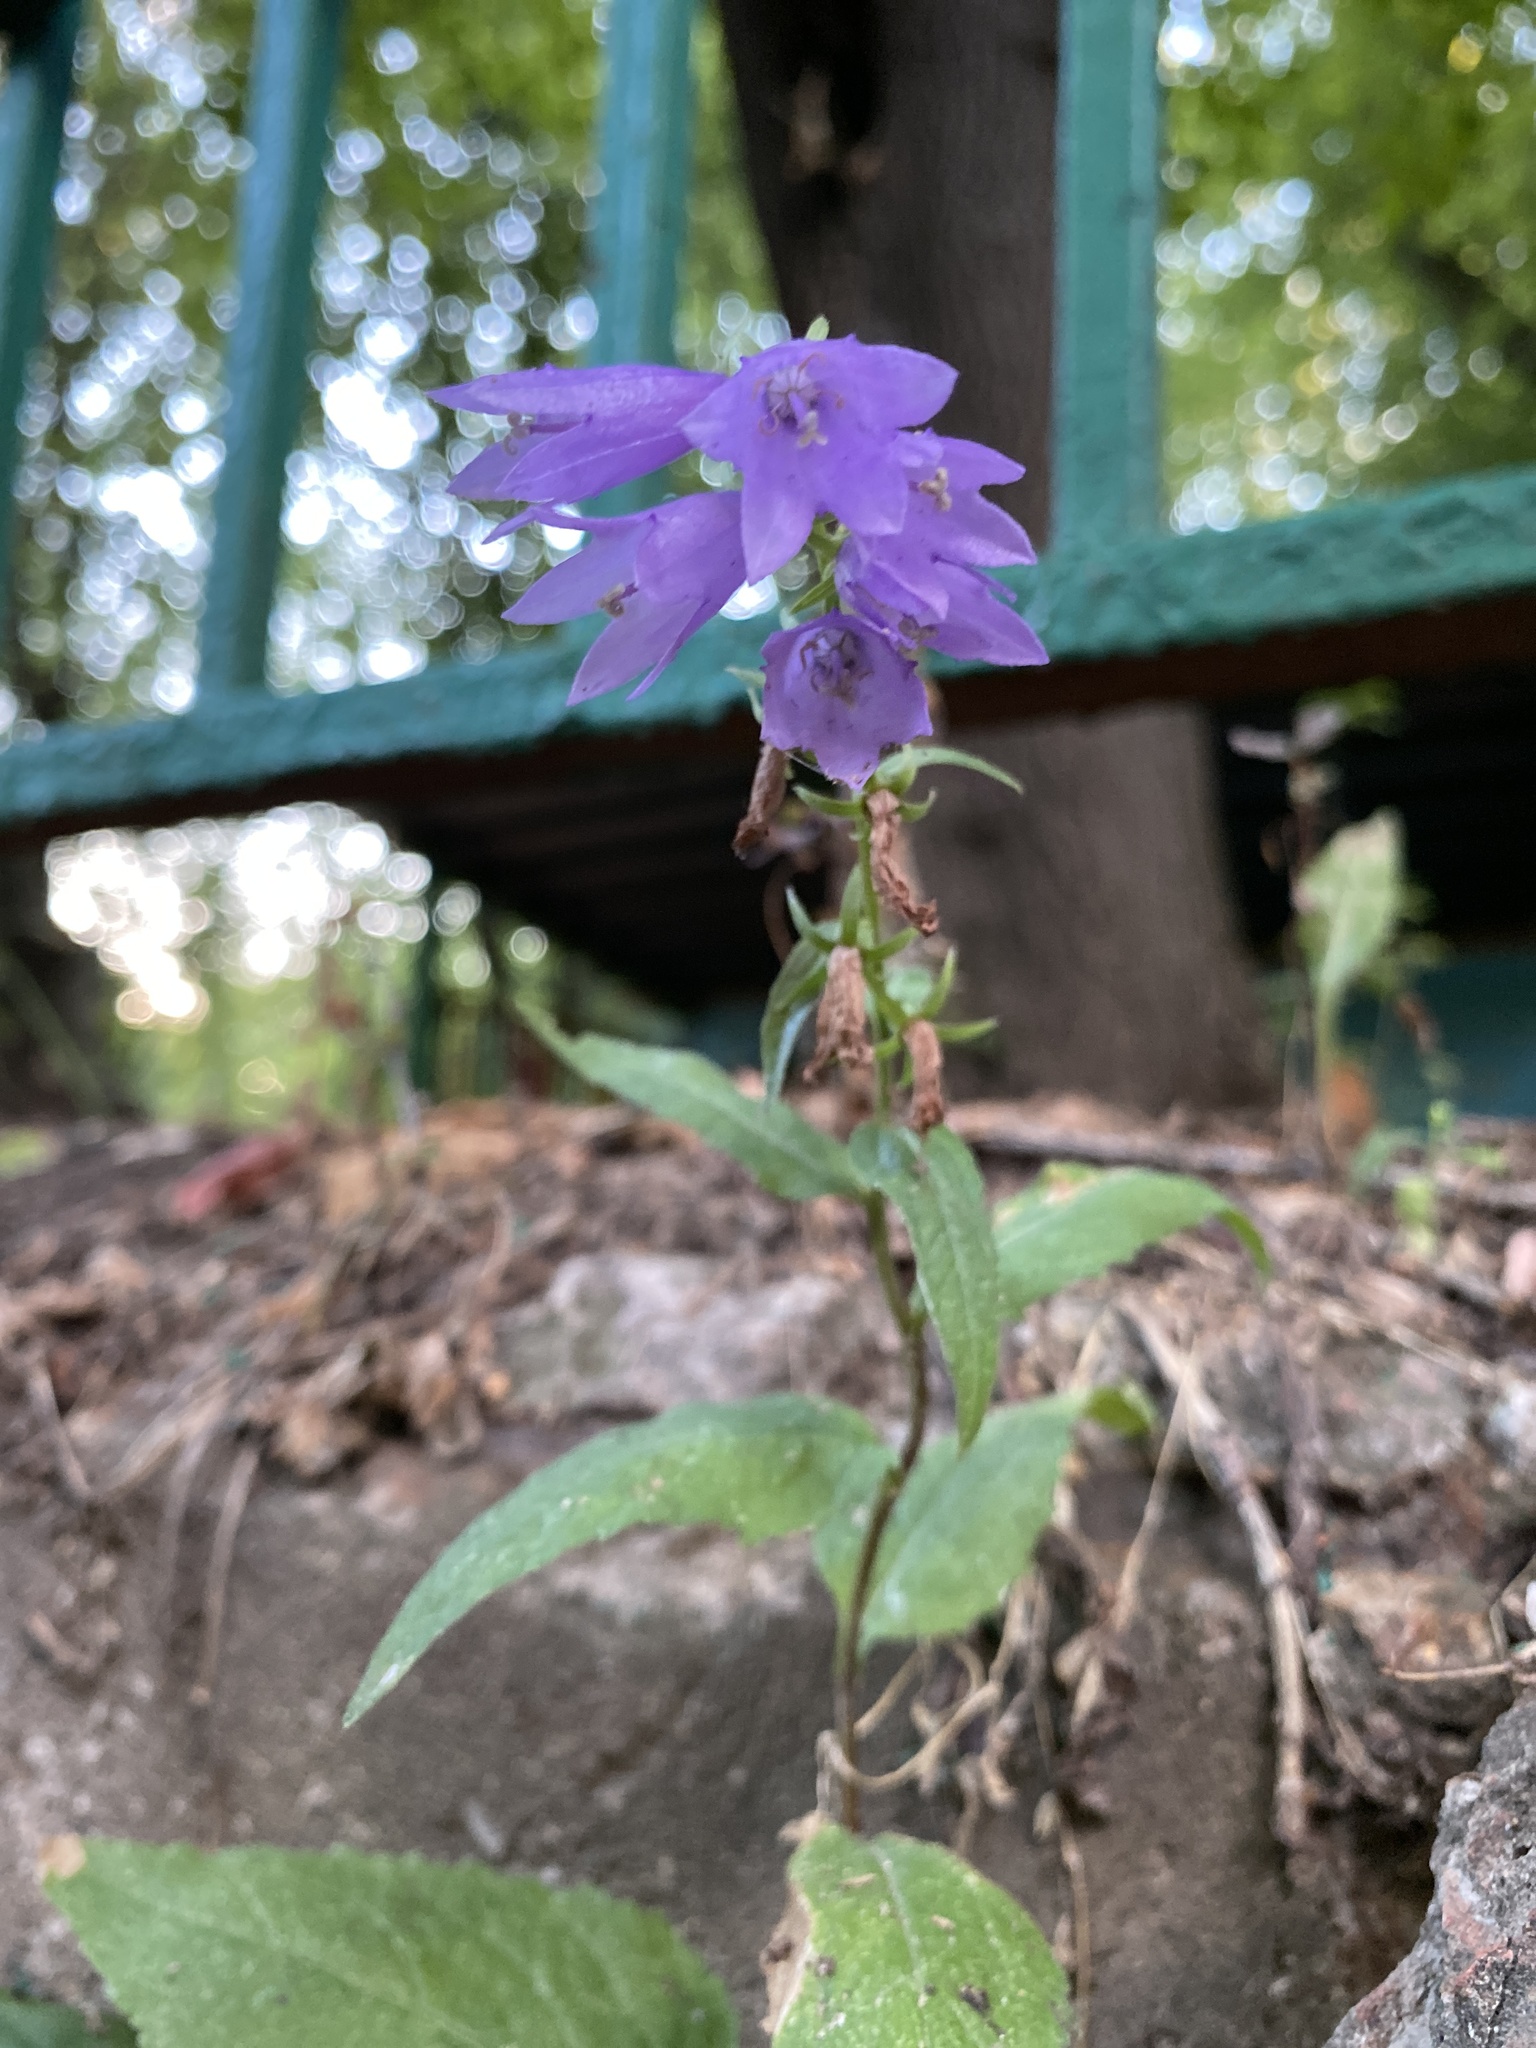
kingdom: Plantae
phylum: Tracheophyta
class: Magnoliopsida
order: Asterales
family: Campanulaceae
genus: Campanula
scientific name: Campanula rapunculoides
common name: Creeping bellflower
